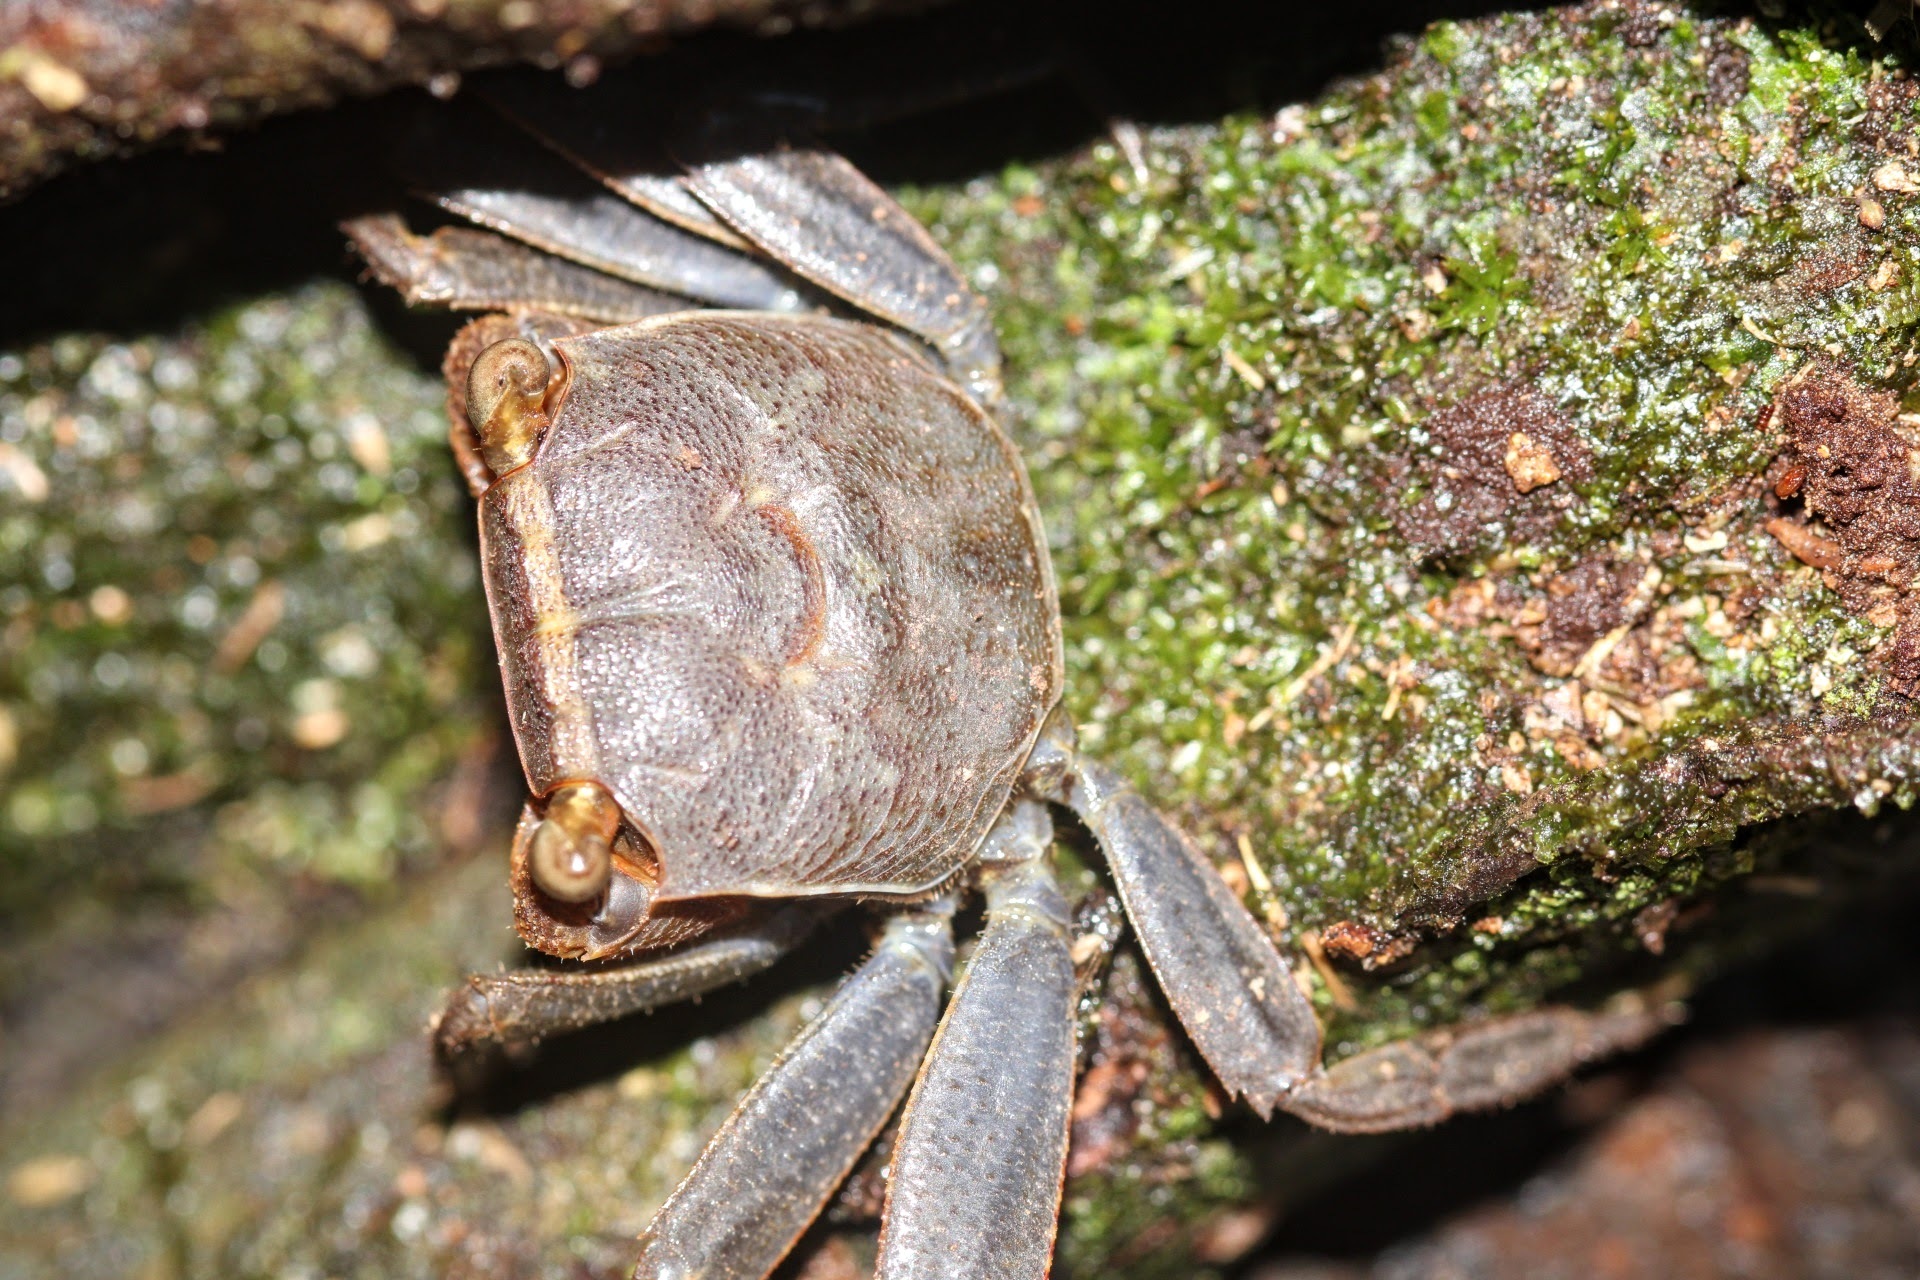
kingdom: Animalia
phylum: Arthropoda
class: Malacostraca
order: Decapoda
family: Sesarmidae
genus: Armases
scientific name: Armases occidentale
